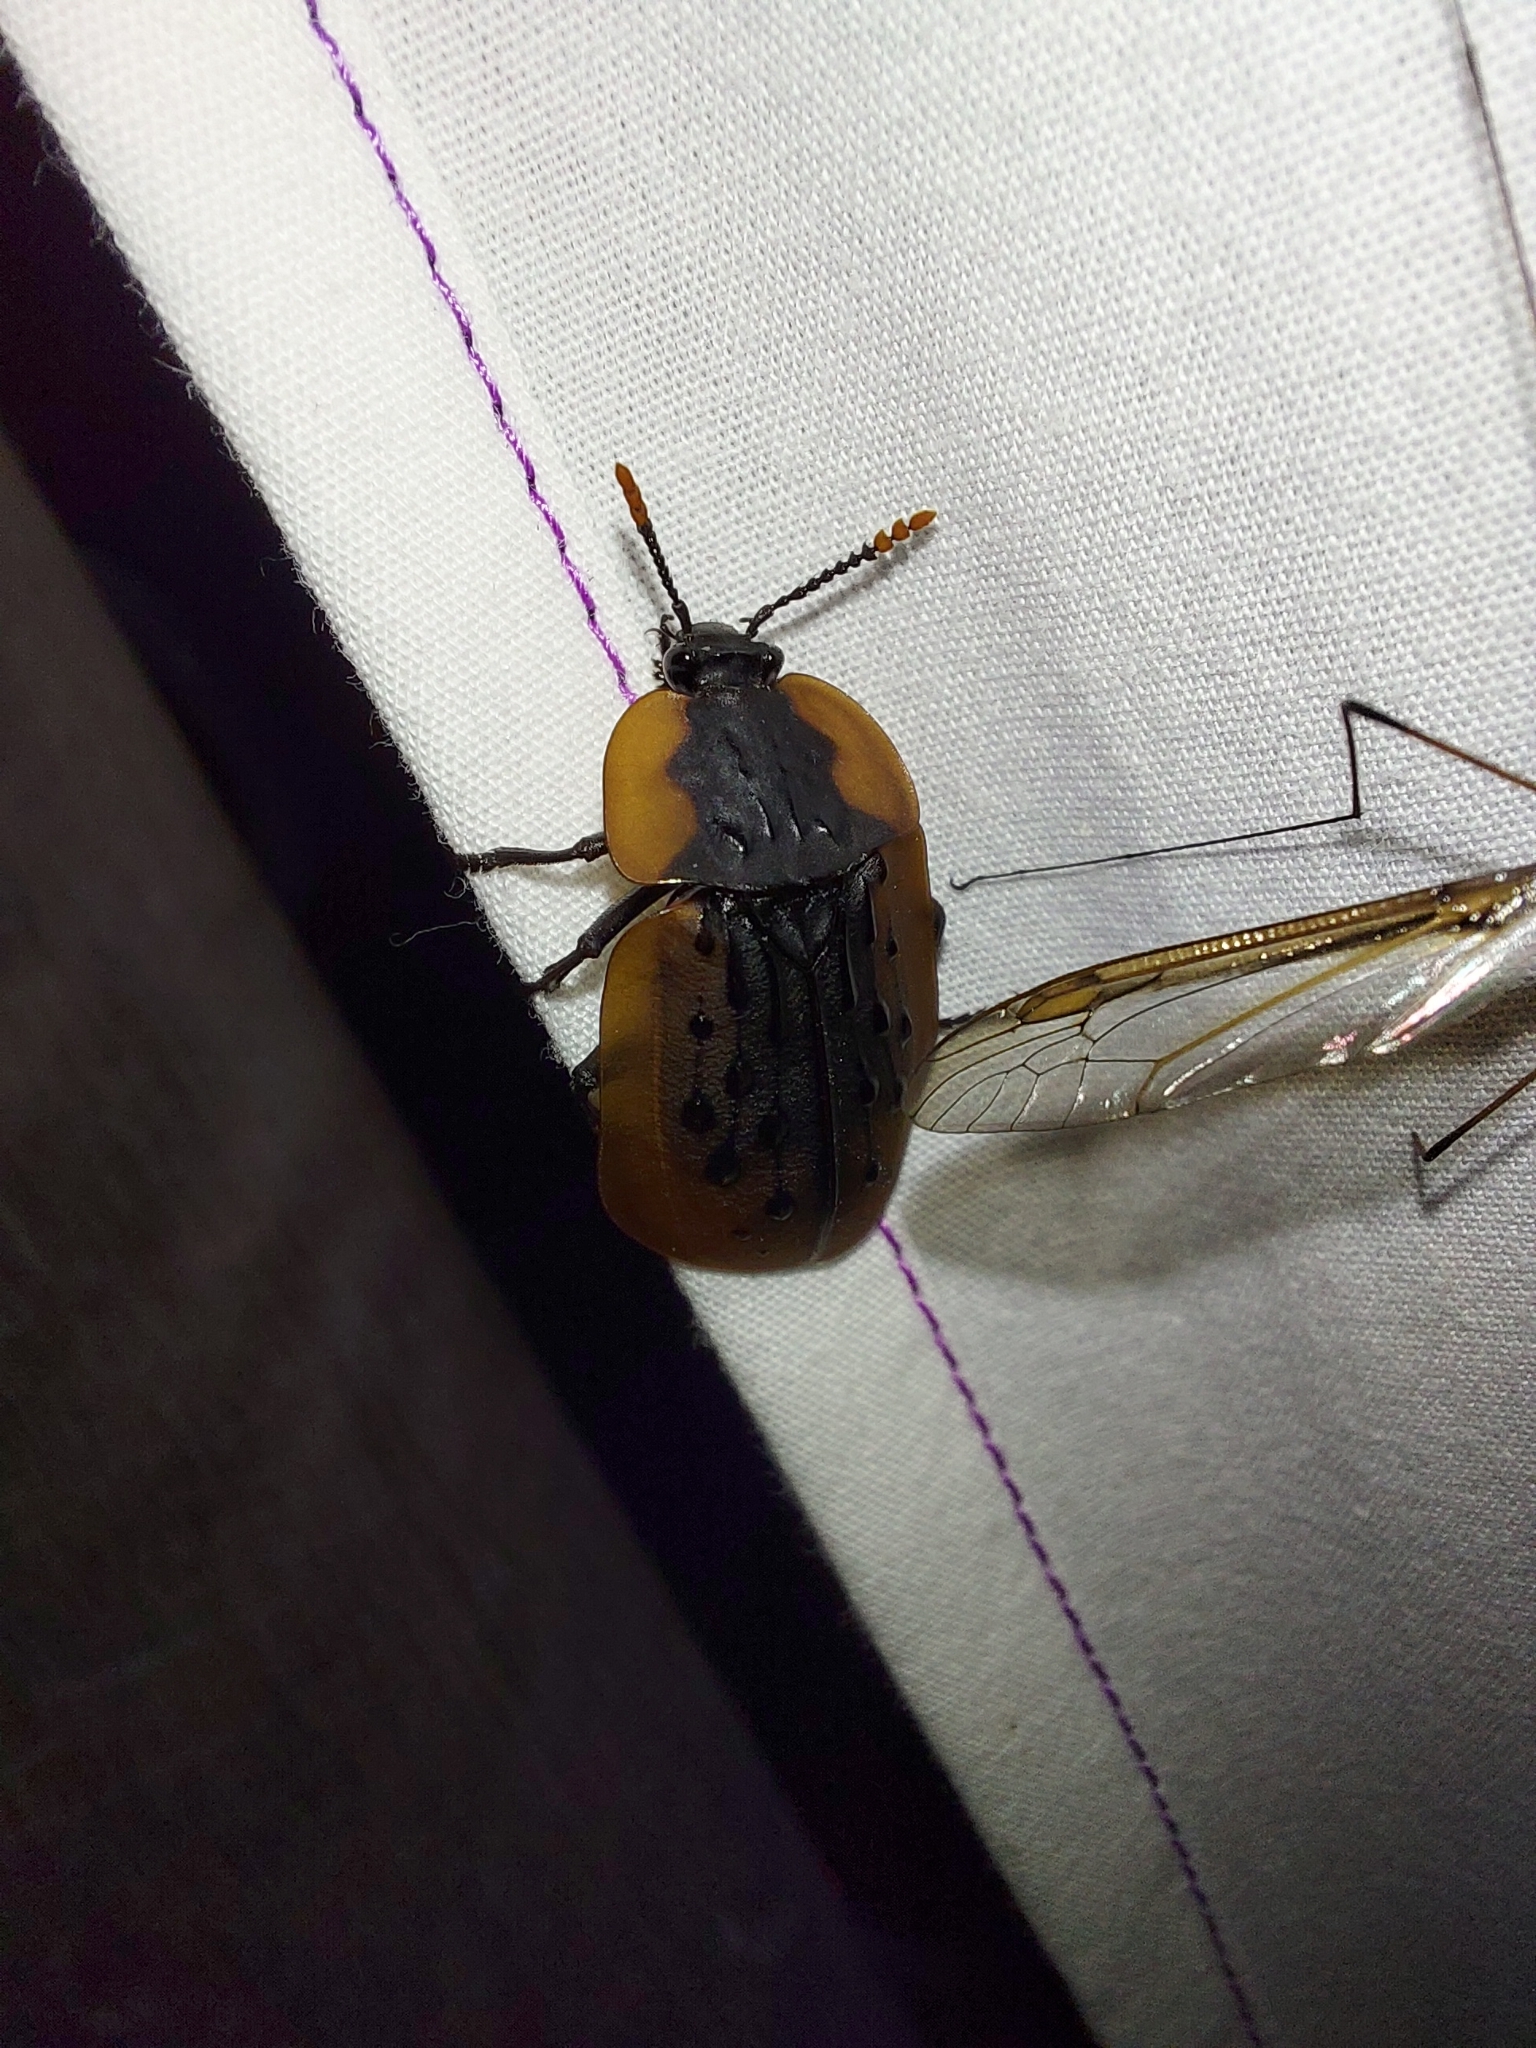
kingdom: Animalia
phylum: Arthropoda
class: Insecta
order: Coleoptera
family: Staphylinidae
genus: Ptomaphila
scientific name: Ptomaphila lacrymosa
